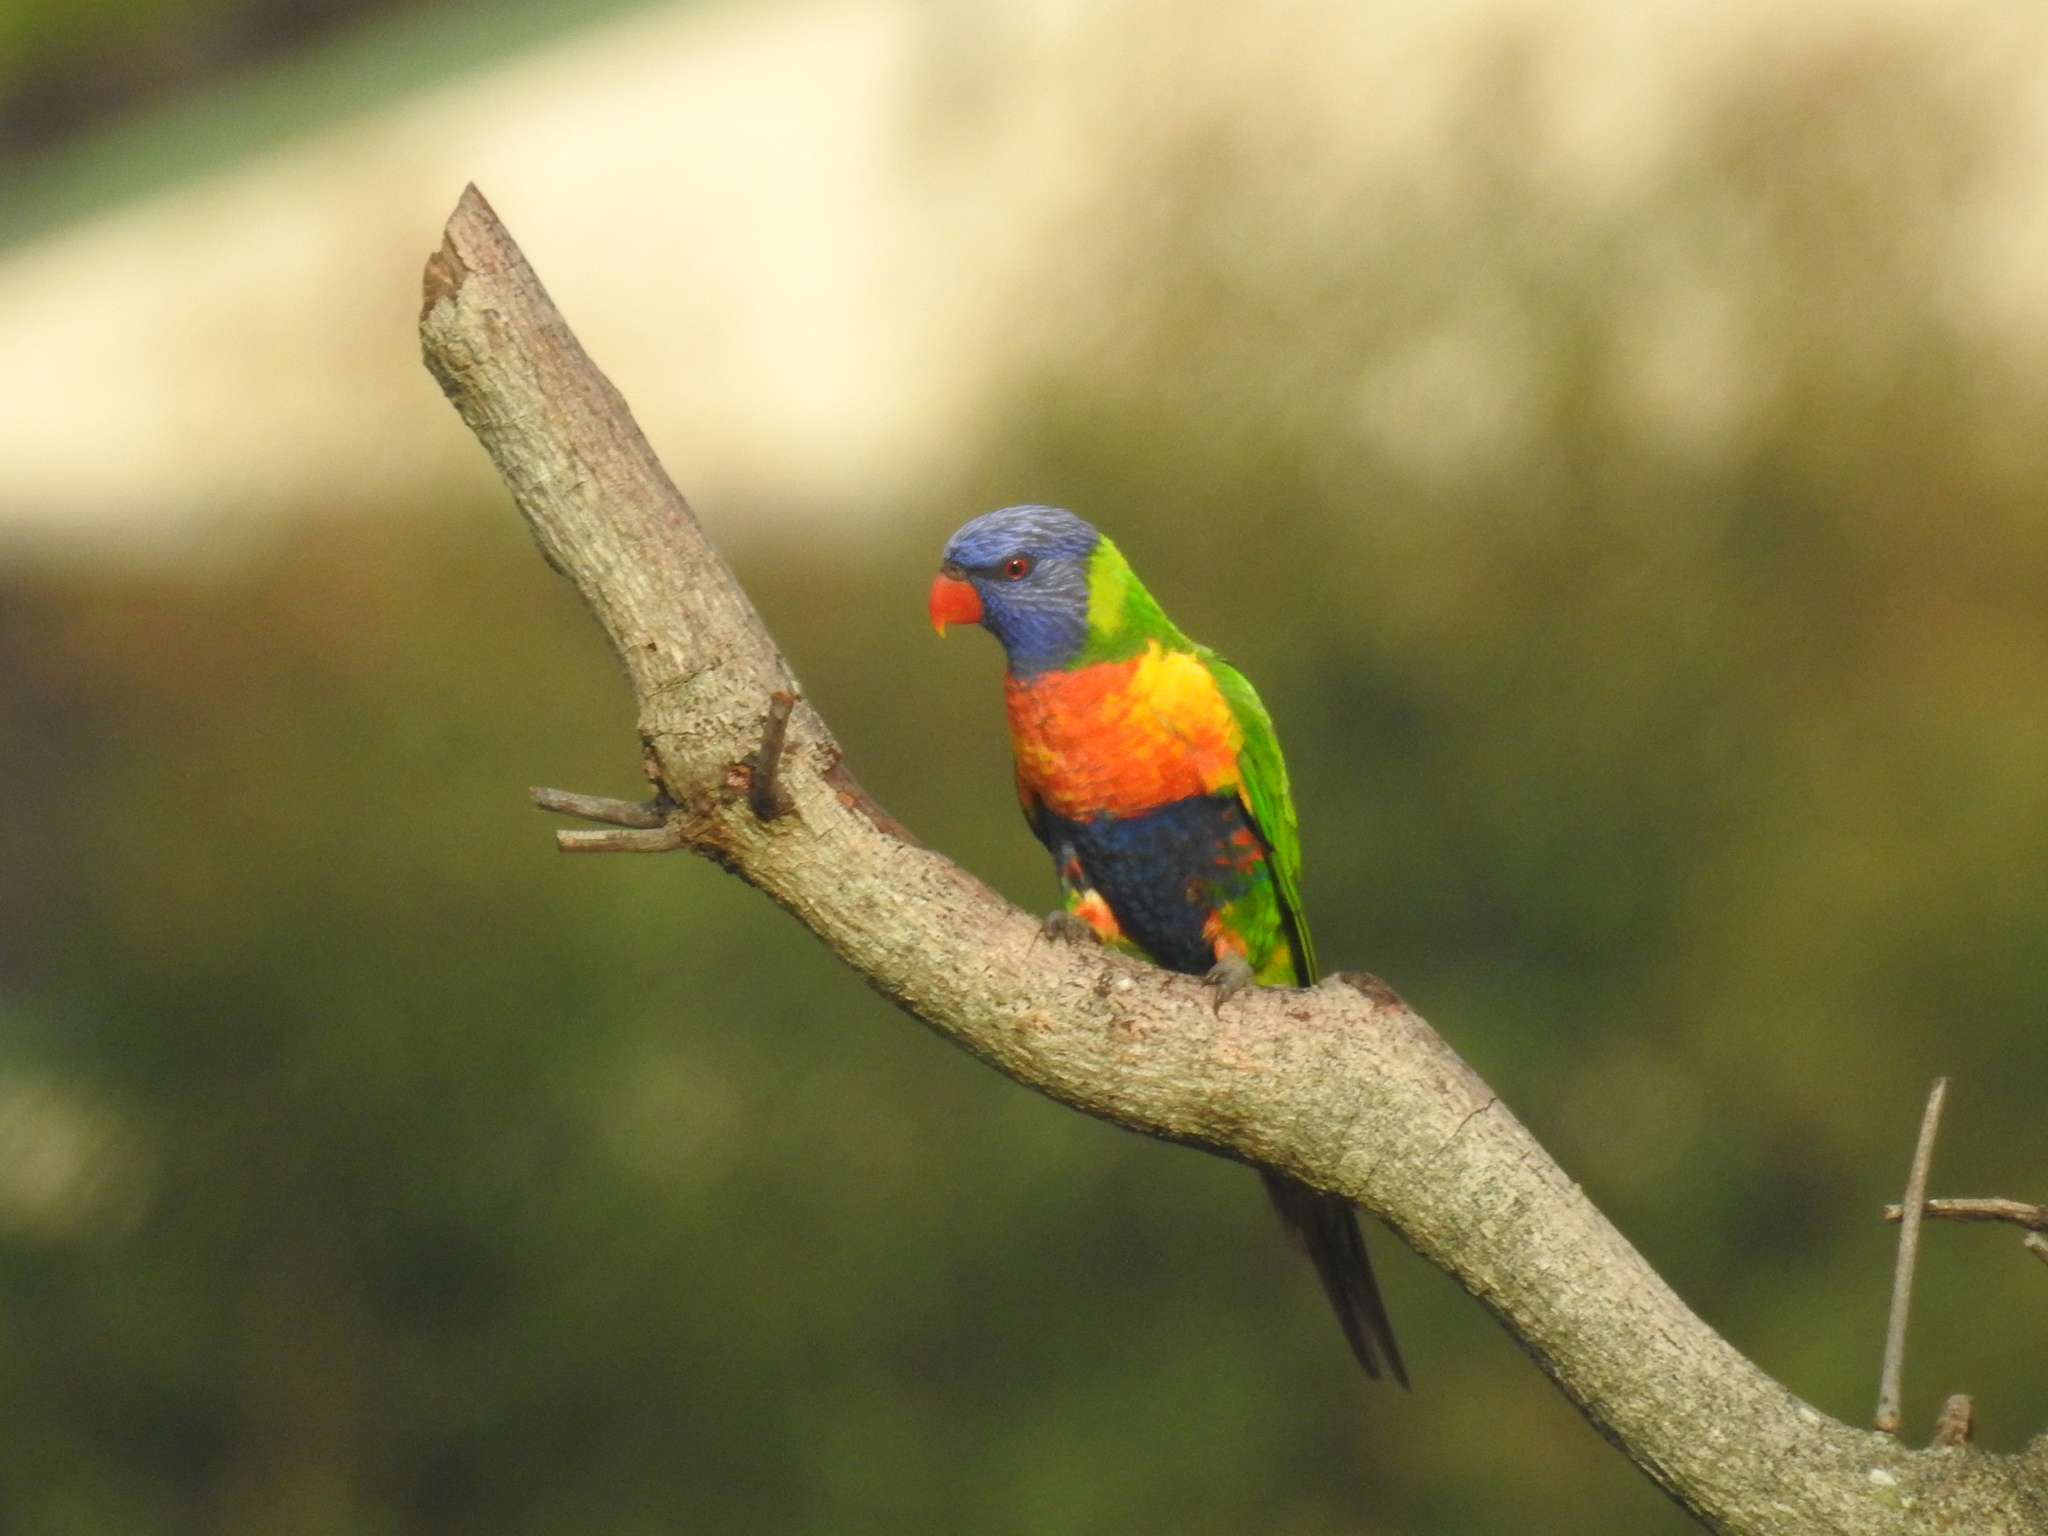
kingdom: Animalia
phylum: Chordata
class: Aves
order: Psittaciformes
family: Psittacidae
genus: Trichoglossus
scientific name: Trichoglossus haematodus
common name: Coconut lorikeet
